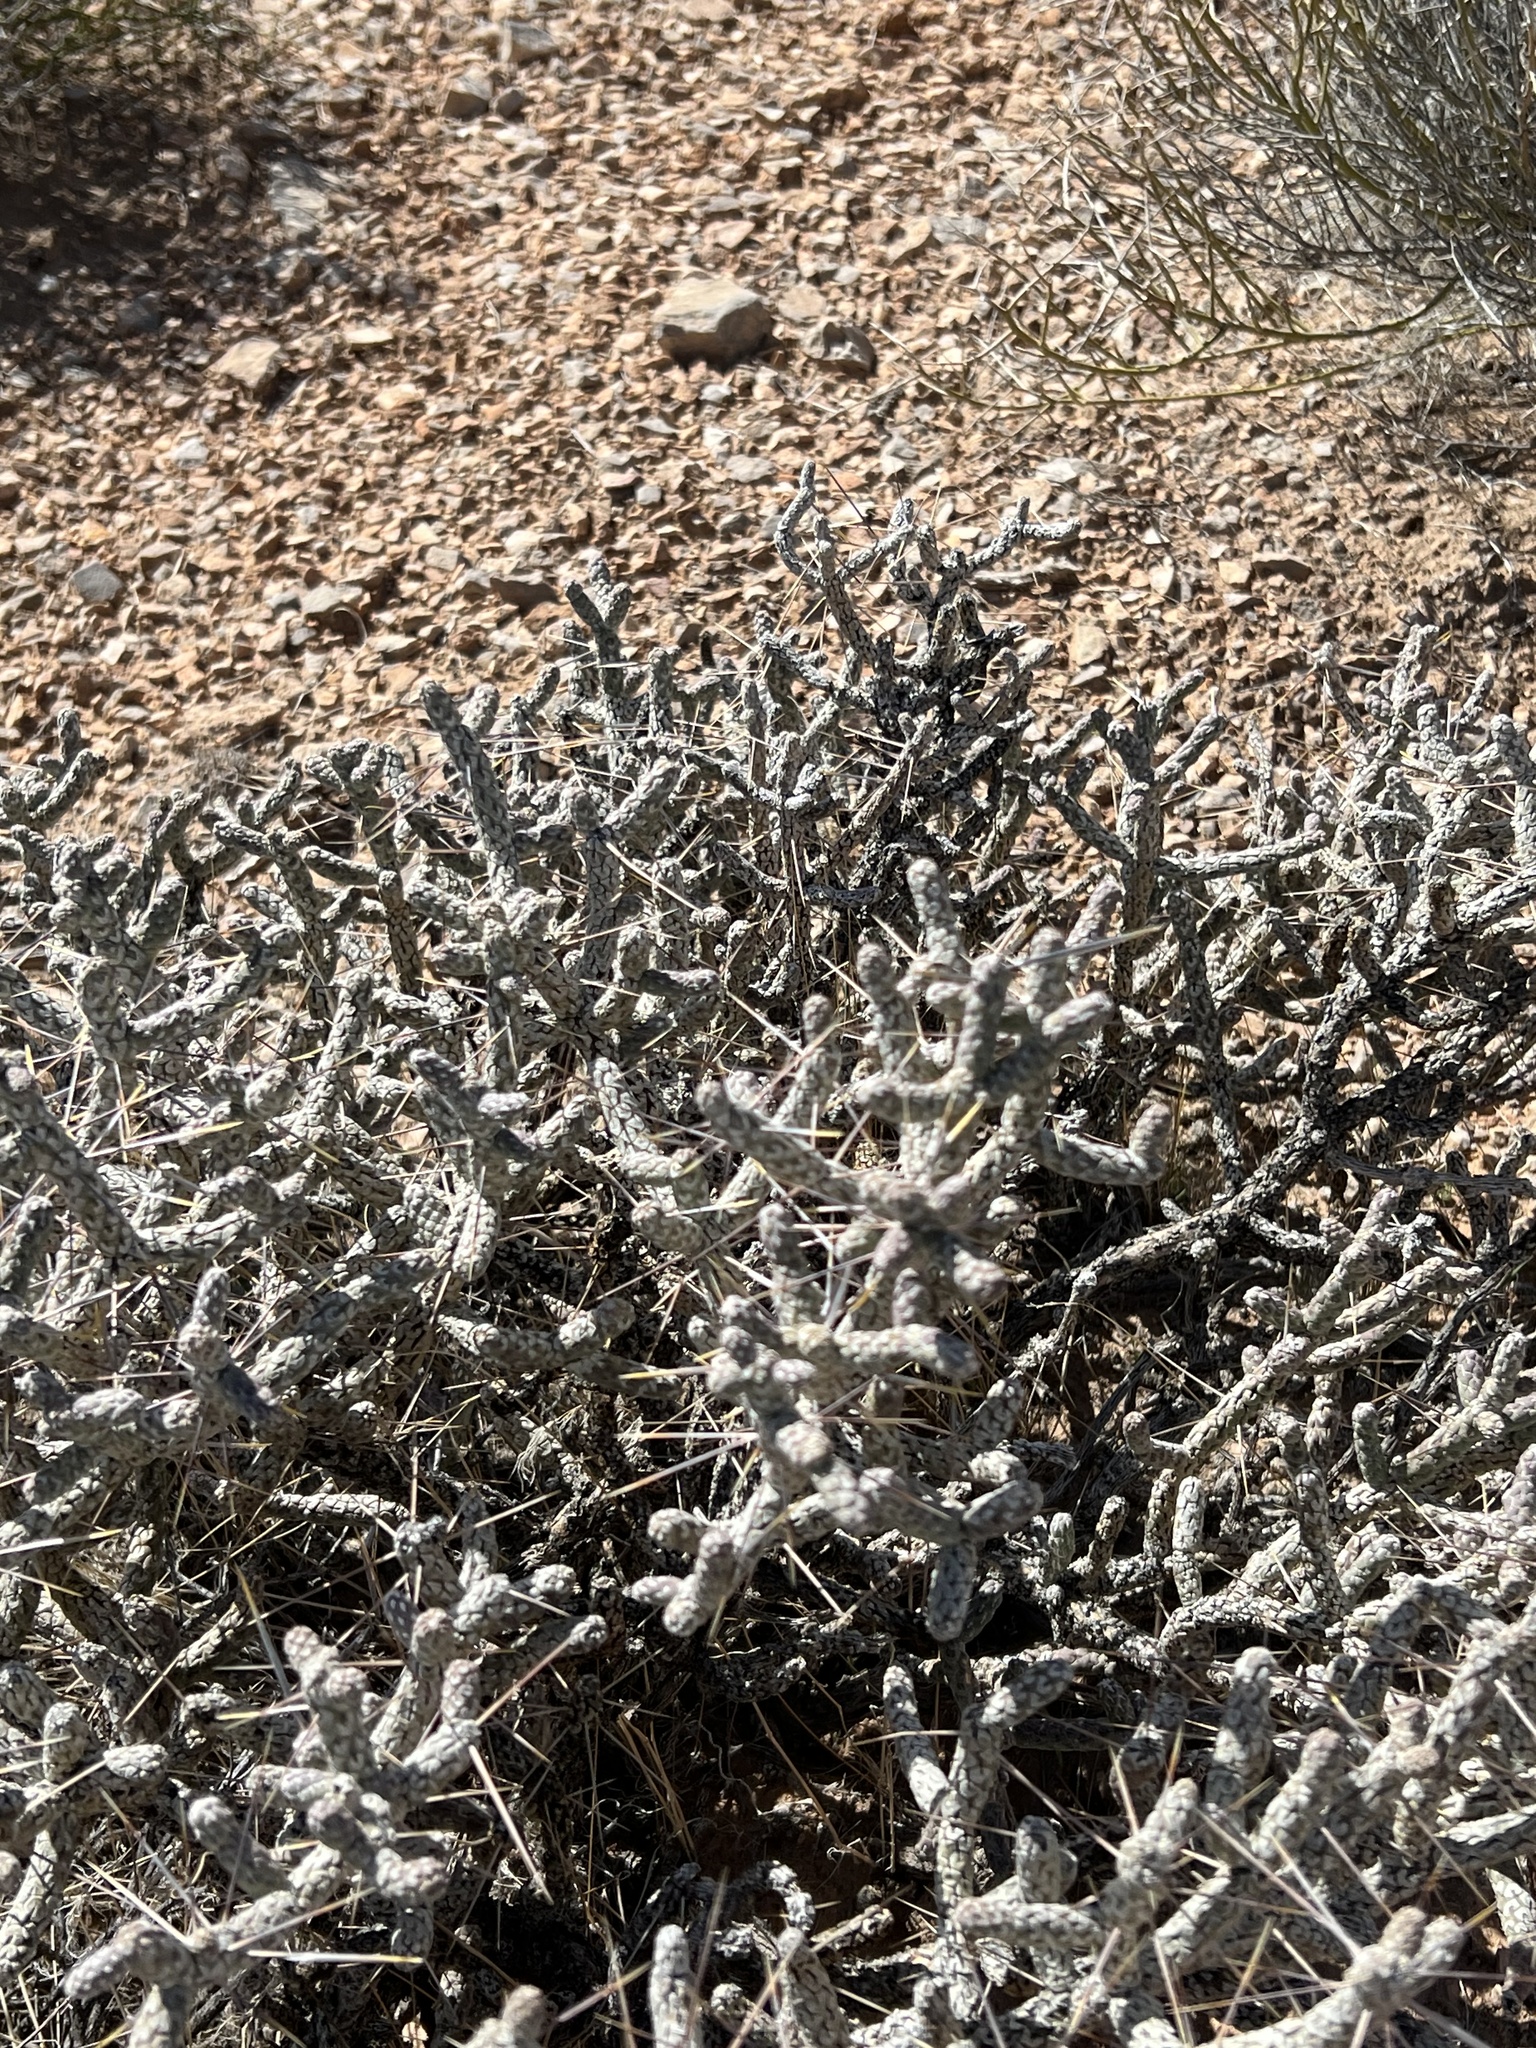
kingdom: Plantae
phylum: Tracheophyta
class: Magnoliopsida
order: Caryophyllales
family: Cactaceae
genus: Cylindropuntia
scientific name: Cylindropuntia ramosissima
